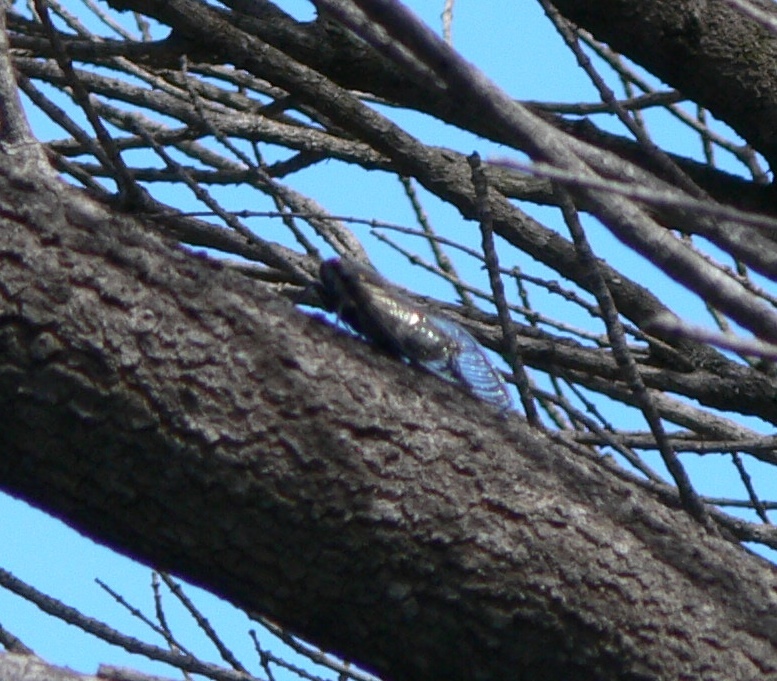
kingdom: Animalia
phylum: Arthropoda
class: Insecta
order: Hemiptera
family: Cicadidae
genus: Psaltoda
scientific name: Psaltoda moerens
